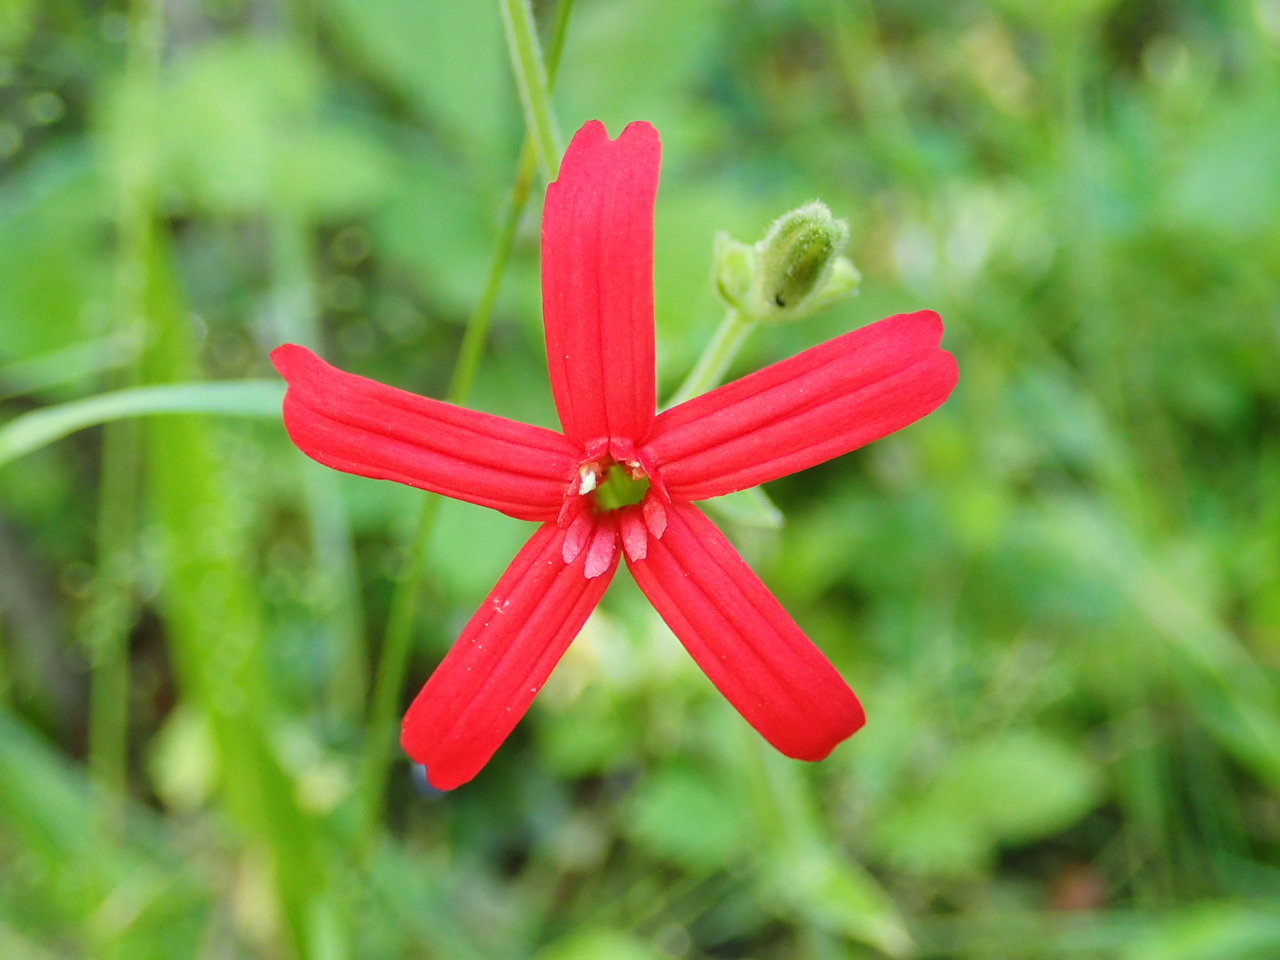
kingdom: Plantae
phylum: Tracheophyta
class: Magnoliopsida
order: Caryophyllales
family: Caryophyllaceae
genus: Silene
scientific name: Silene virginica
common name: Fire-pink
